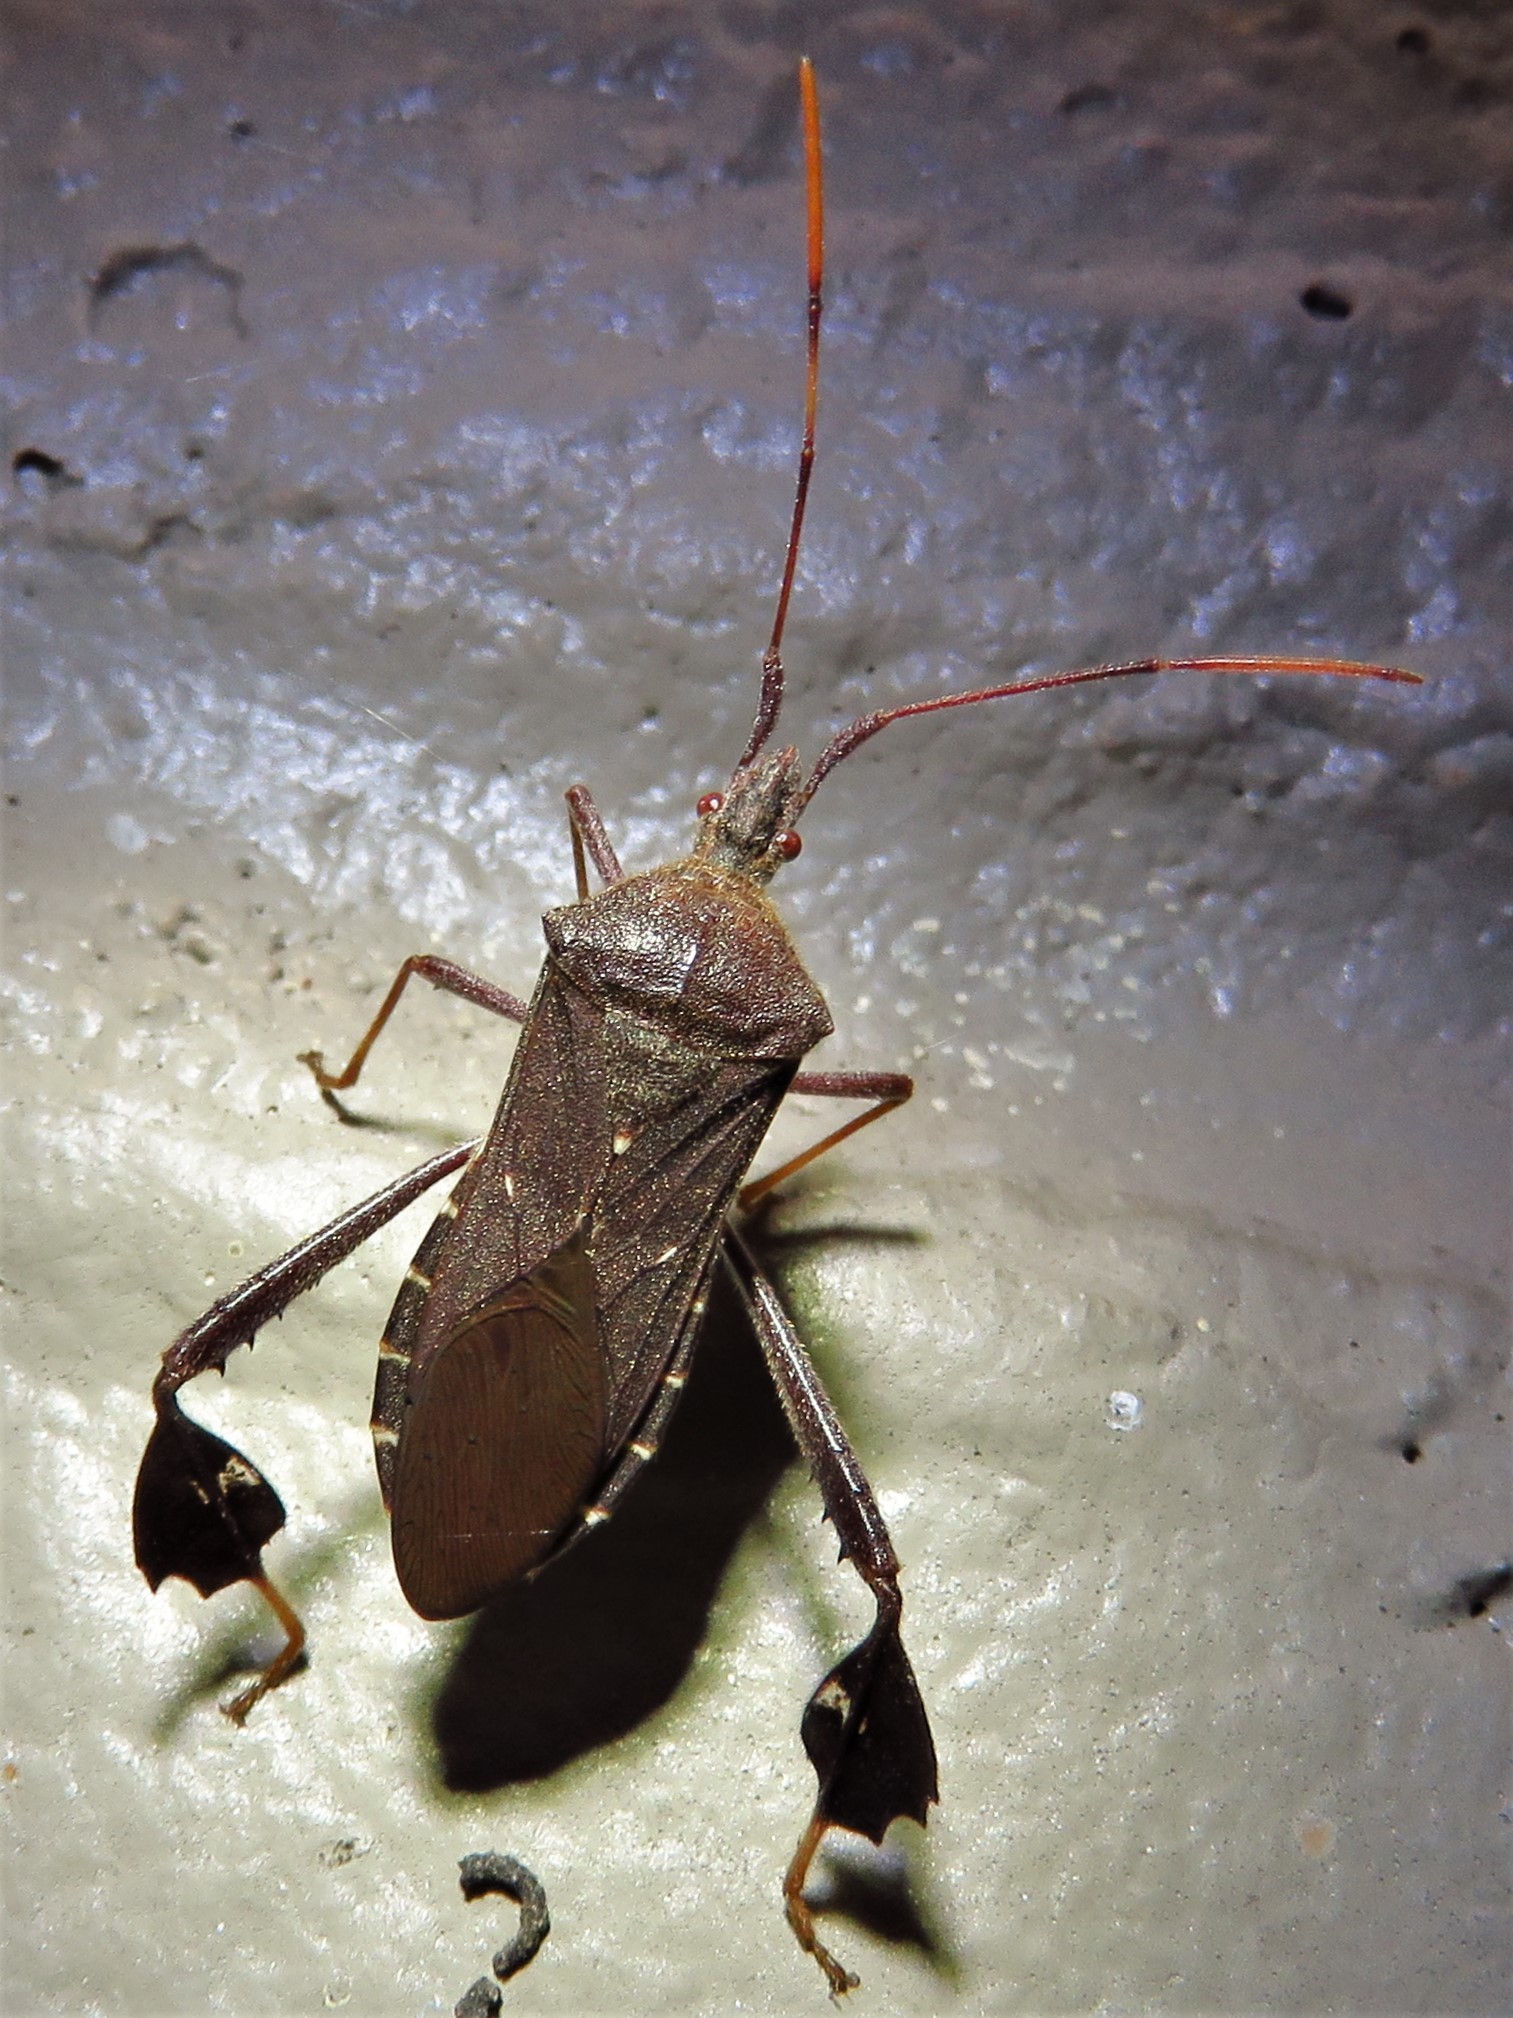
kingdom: Animalia
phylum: Arthropoda
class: Insecta
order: Hemiptera
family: Coreidae
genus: Leptoglossus
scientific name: Leptoglossus oppositus
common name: Northern leaf-footed bug
